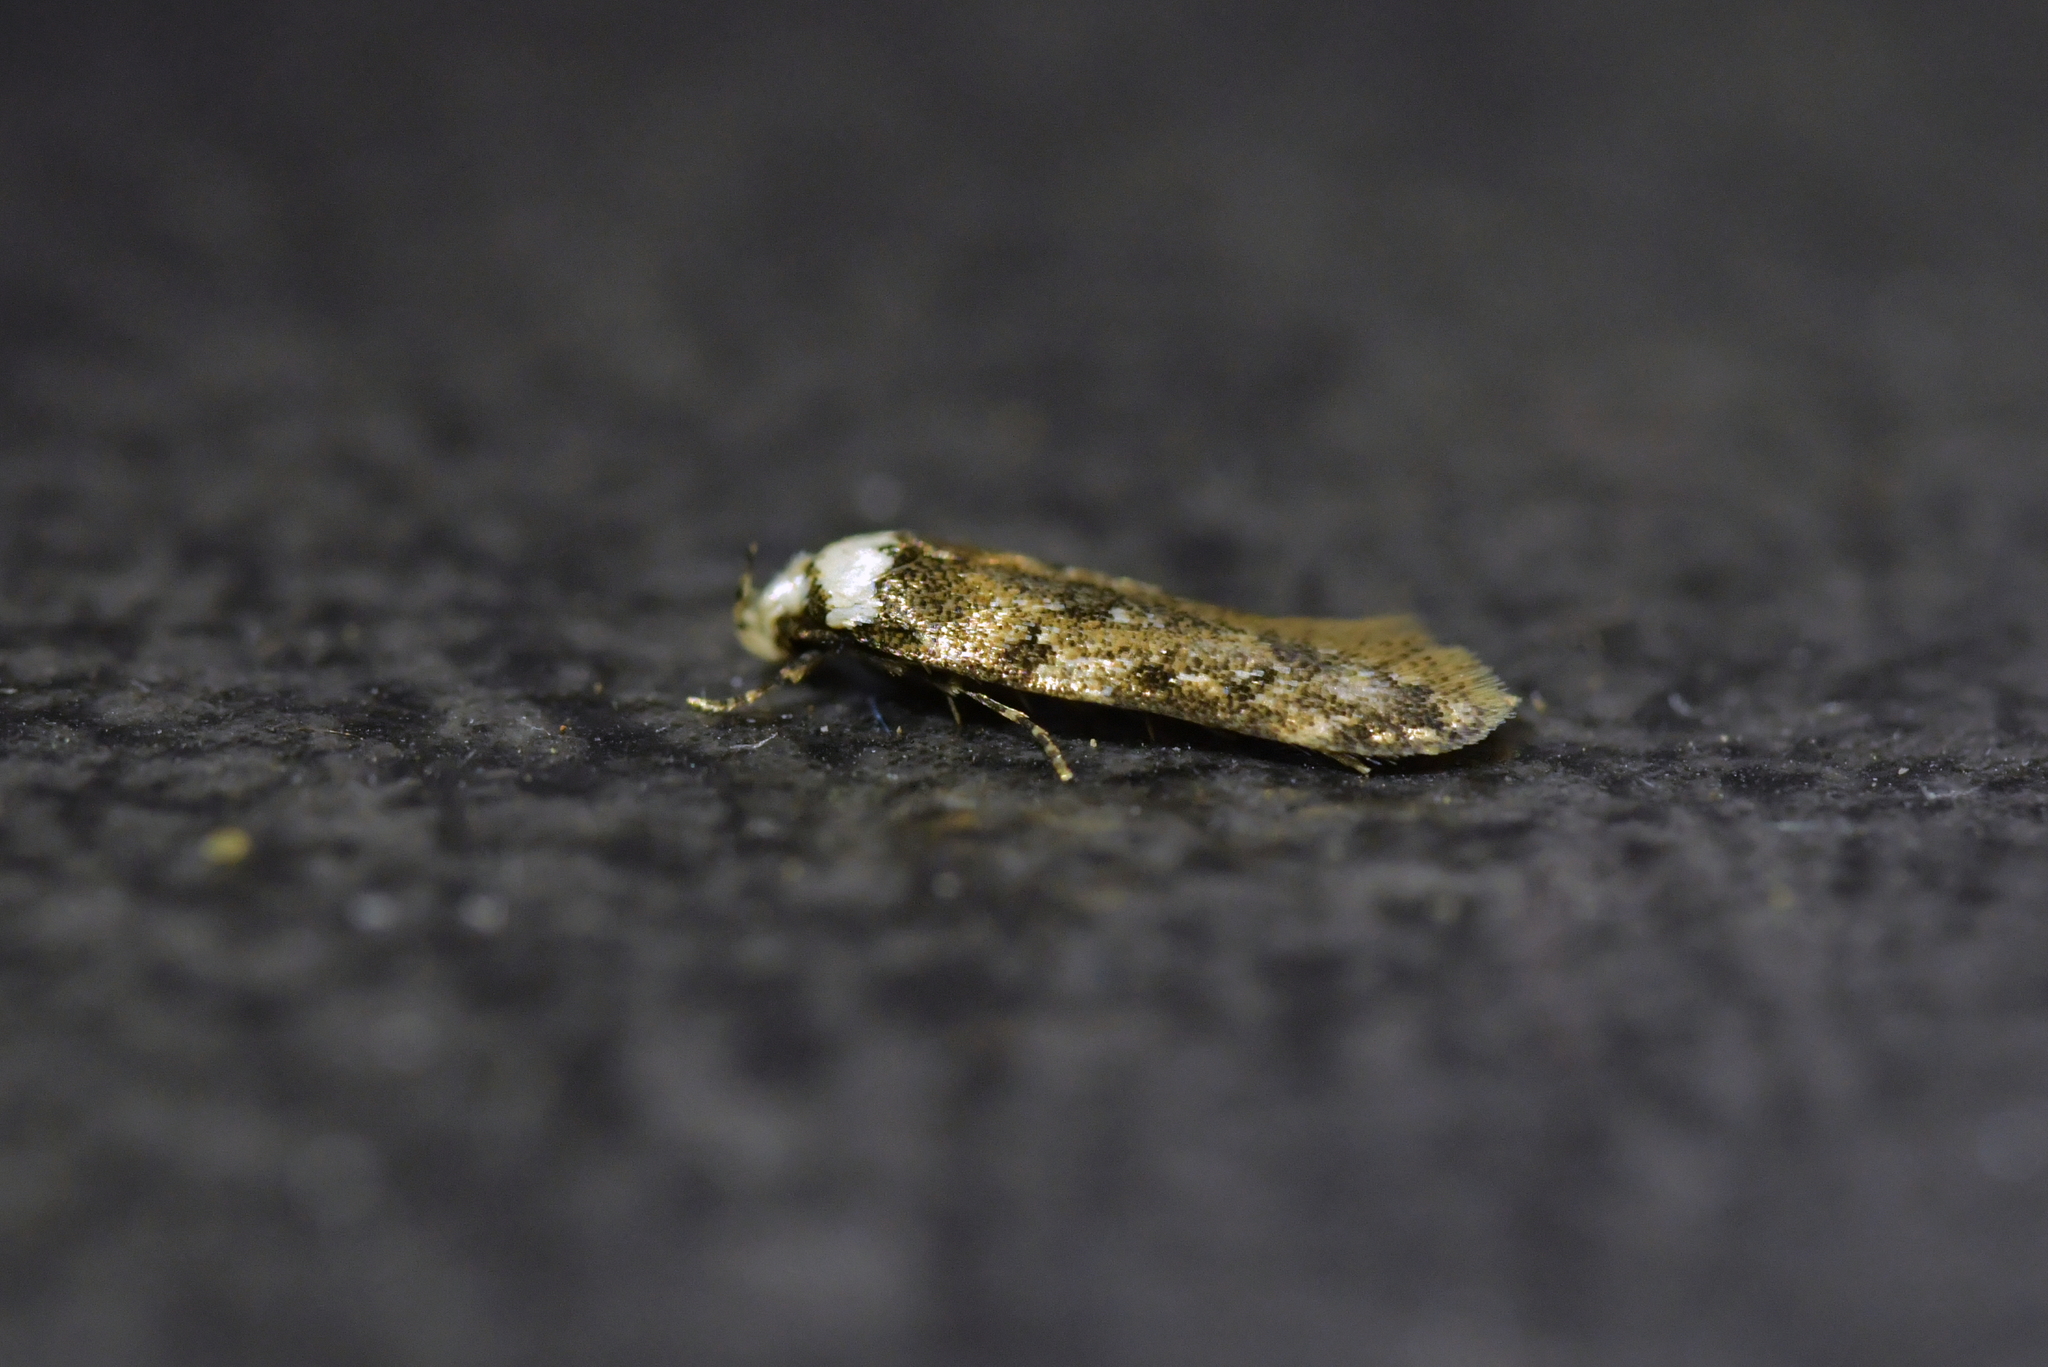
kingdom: Animalia
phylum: Arthropoda
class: Insecta
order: Lepidoptera
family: Oecophoridae
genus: Endrosis
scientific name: Endrosis sarcitrella
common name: White-shouldered house moth
